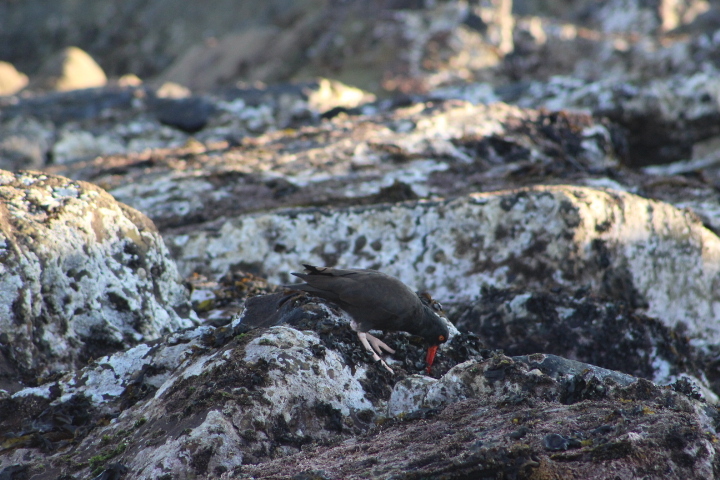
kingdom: Animalia
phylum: Chordata
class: Aves
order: Charadriiformes
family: Haematopodidae
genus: Haematopus
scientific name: Haematopus bachmani
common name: Black oystercatcher
